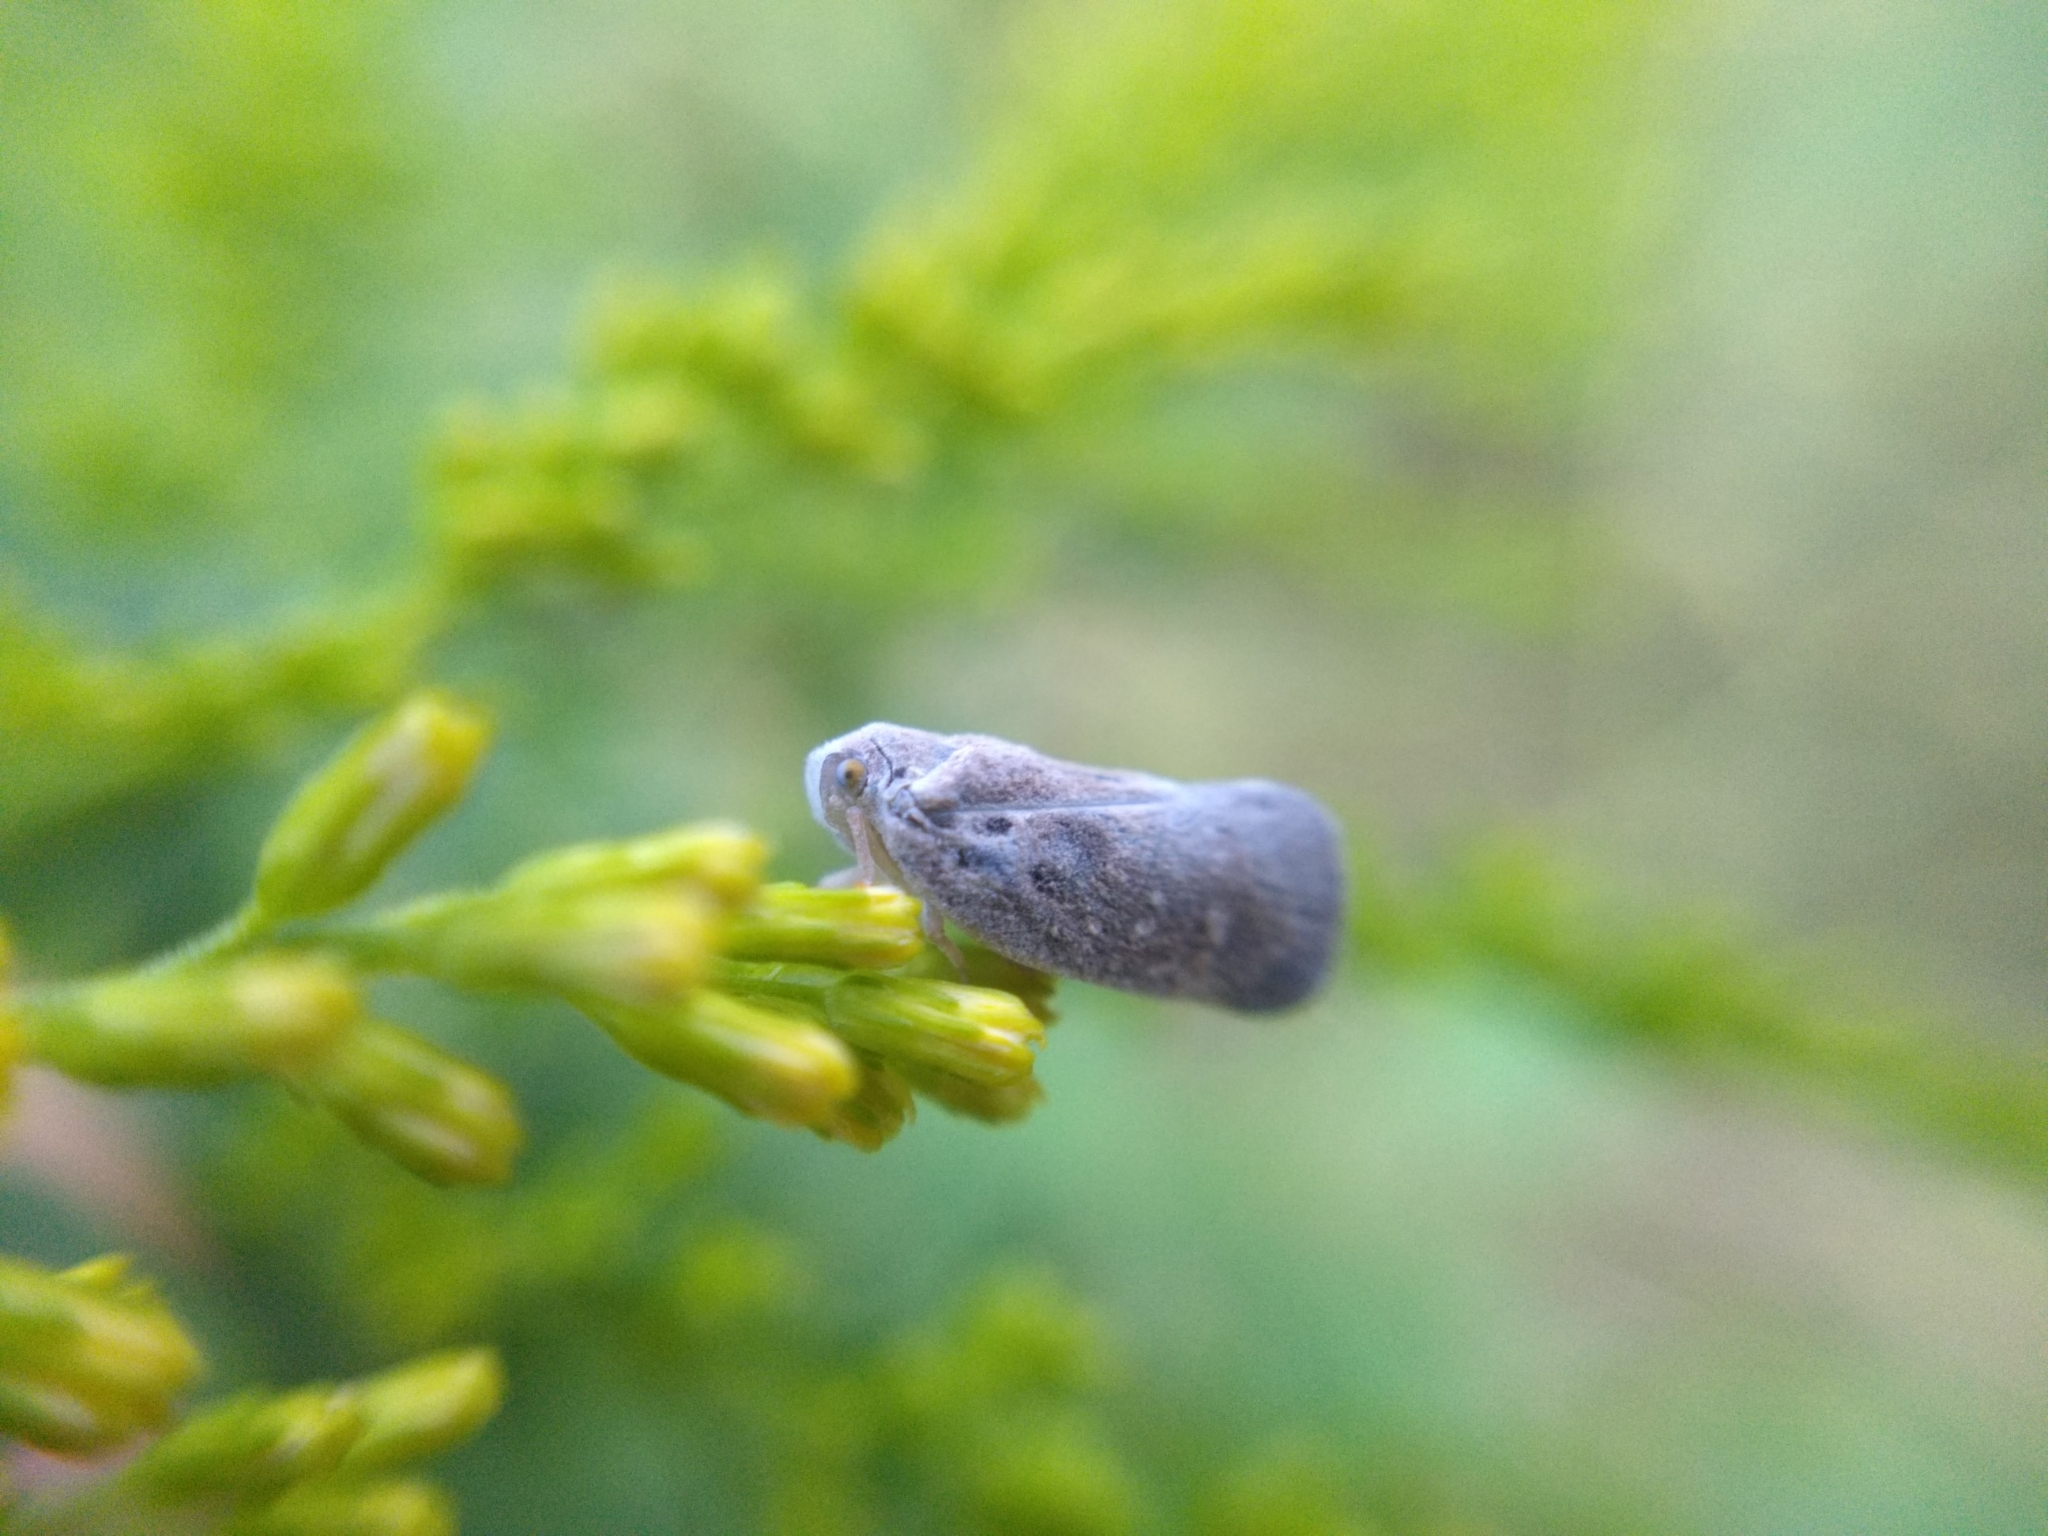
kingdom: Animalia
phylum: Arthropoda
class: Insecta
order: Hemiptera
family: Flatidae
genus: Metcalfa
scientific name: Metcalfa pruinosa
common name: Citrus flatid planthopper
